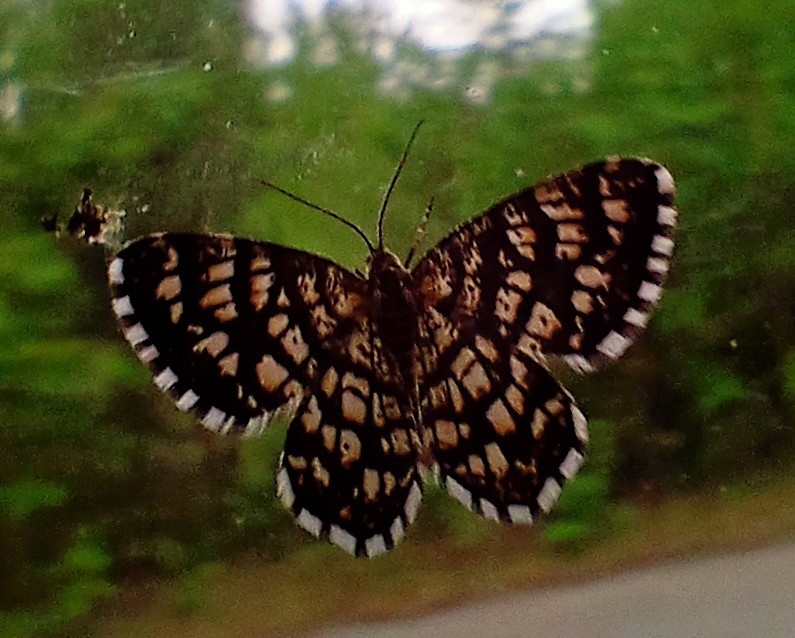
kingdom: Animalia
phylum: Arthropoda
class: Insecta
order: Lepidoptera
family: Geometridae
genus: Chiasmia
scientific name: Chiasmia clathrata
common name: Latticed heath
